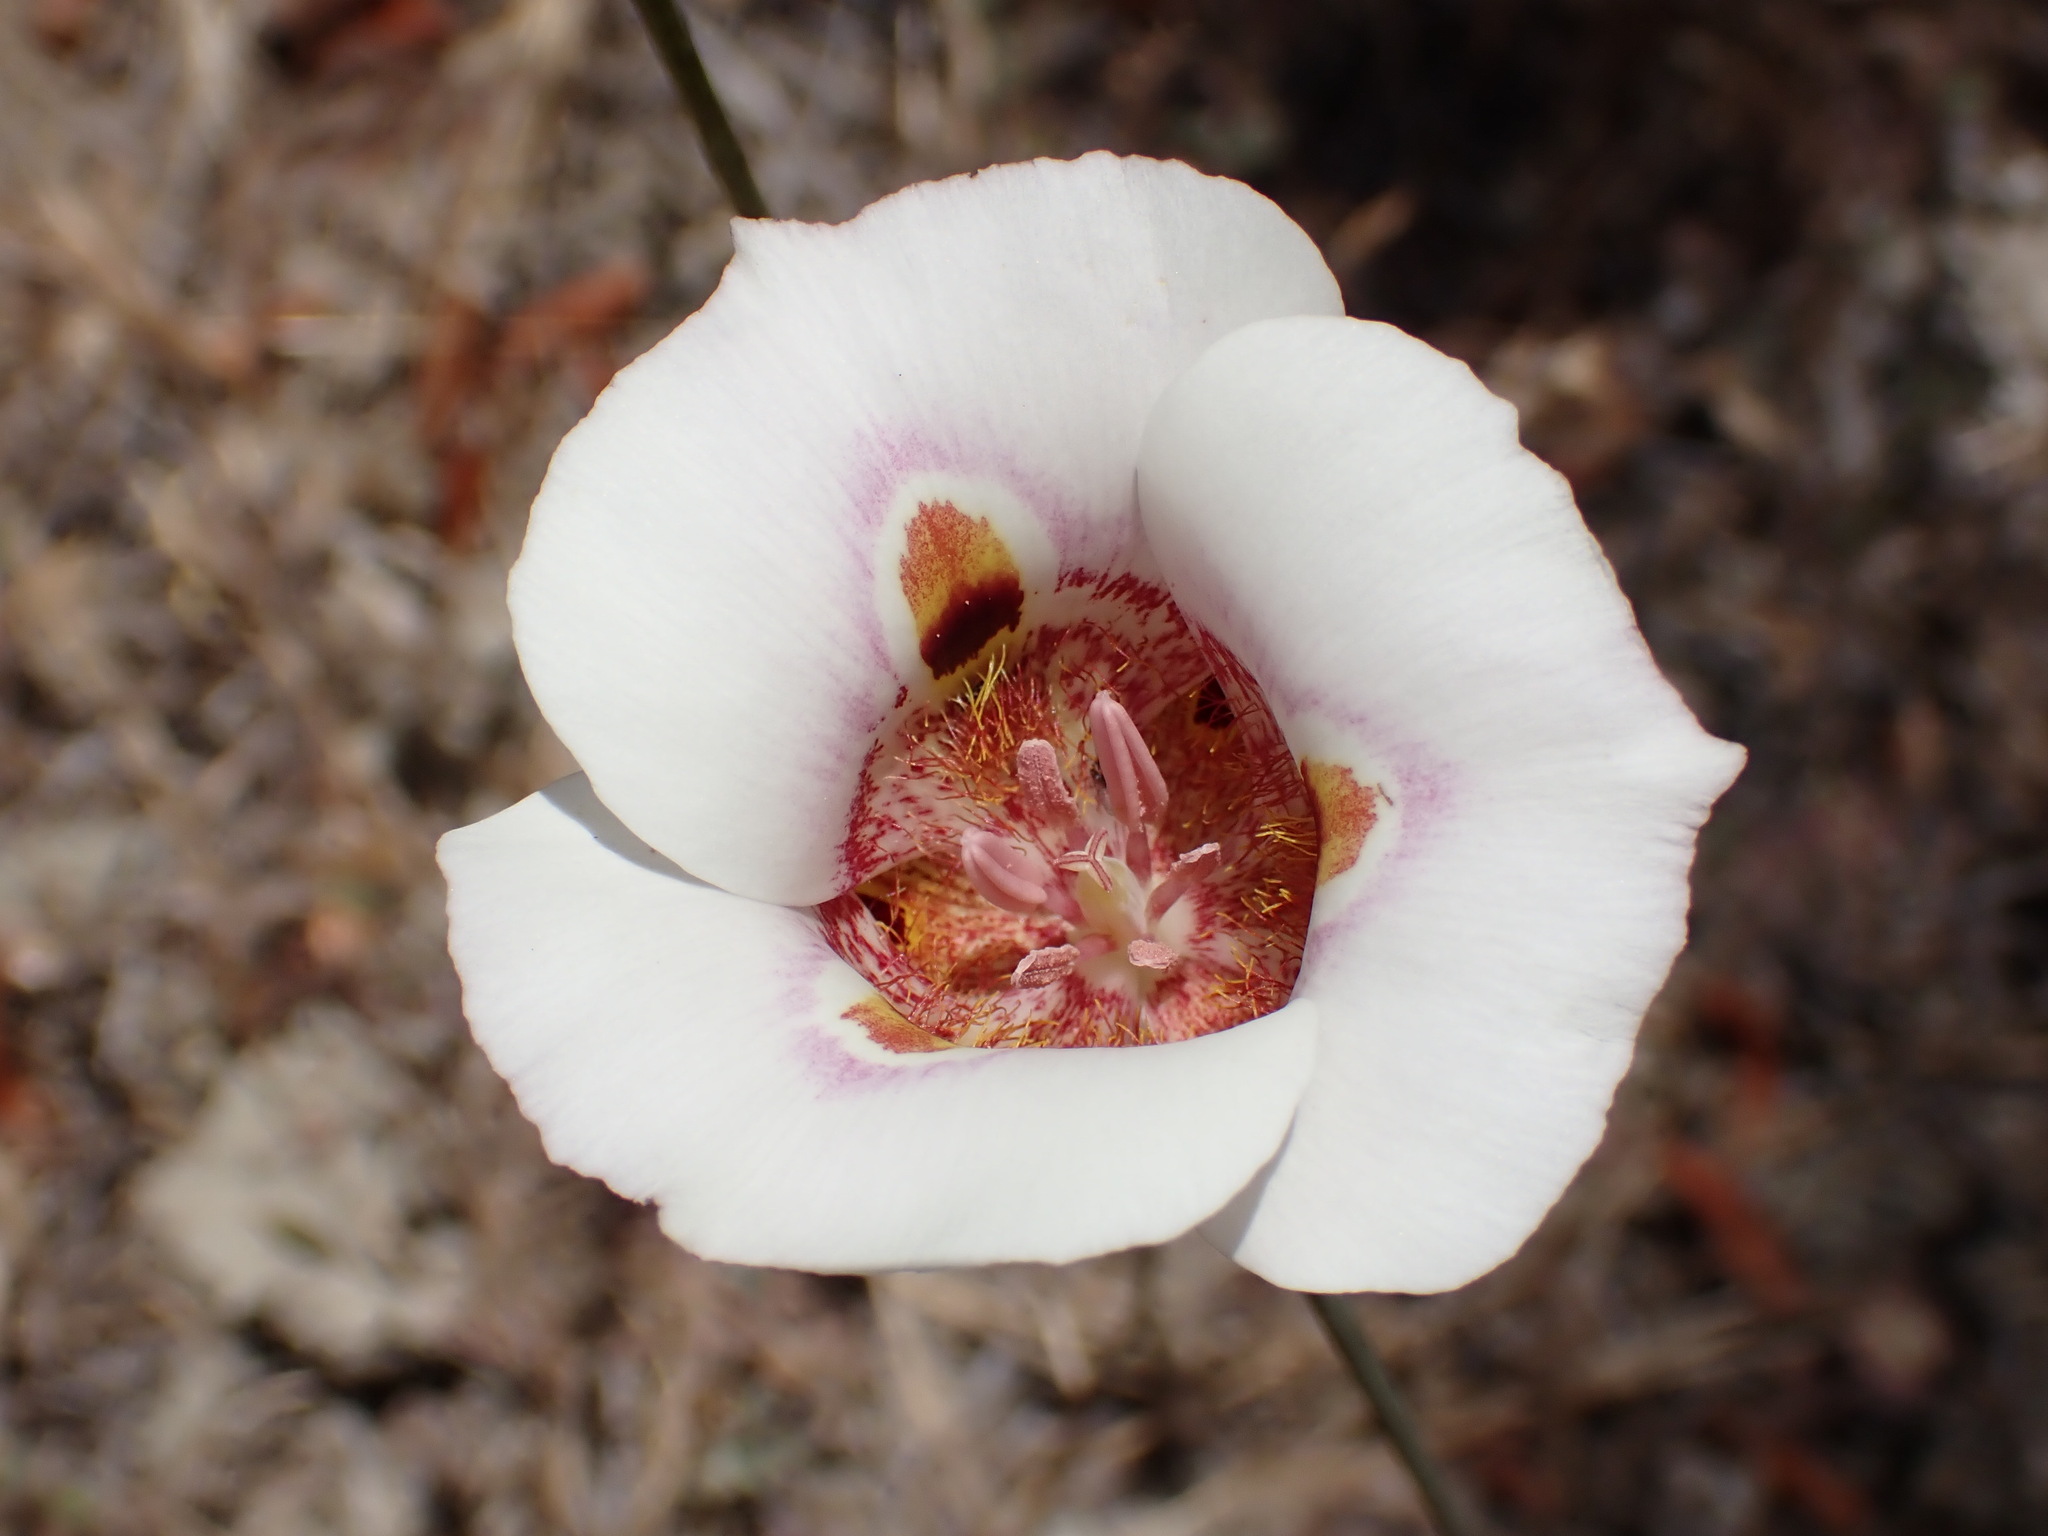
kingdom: Plantae
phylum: Tracheophyta
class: Liliopsida
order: Liliales
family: Liliaceae
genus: Calochortus
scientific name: Calochortus argillosus
